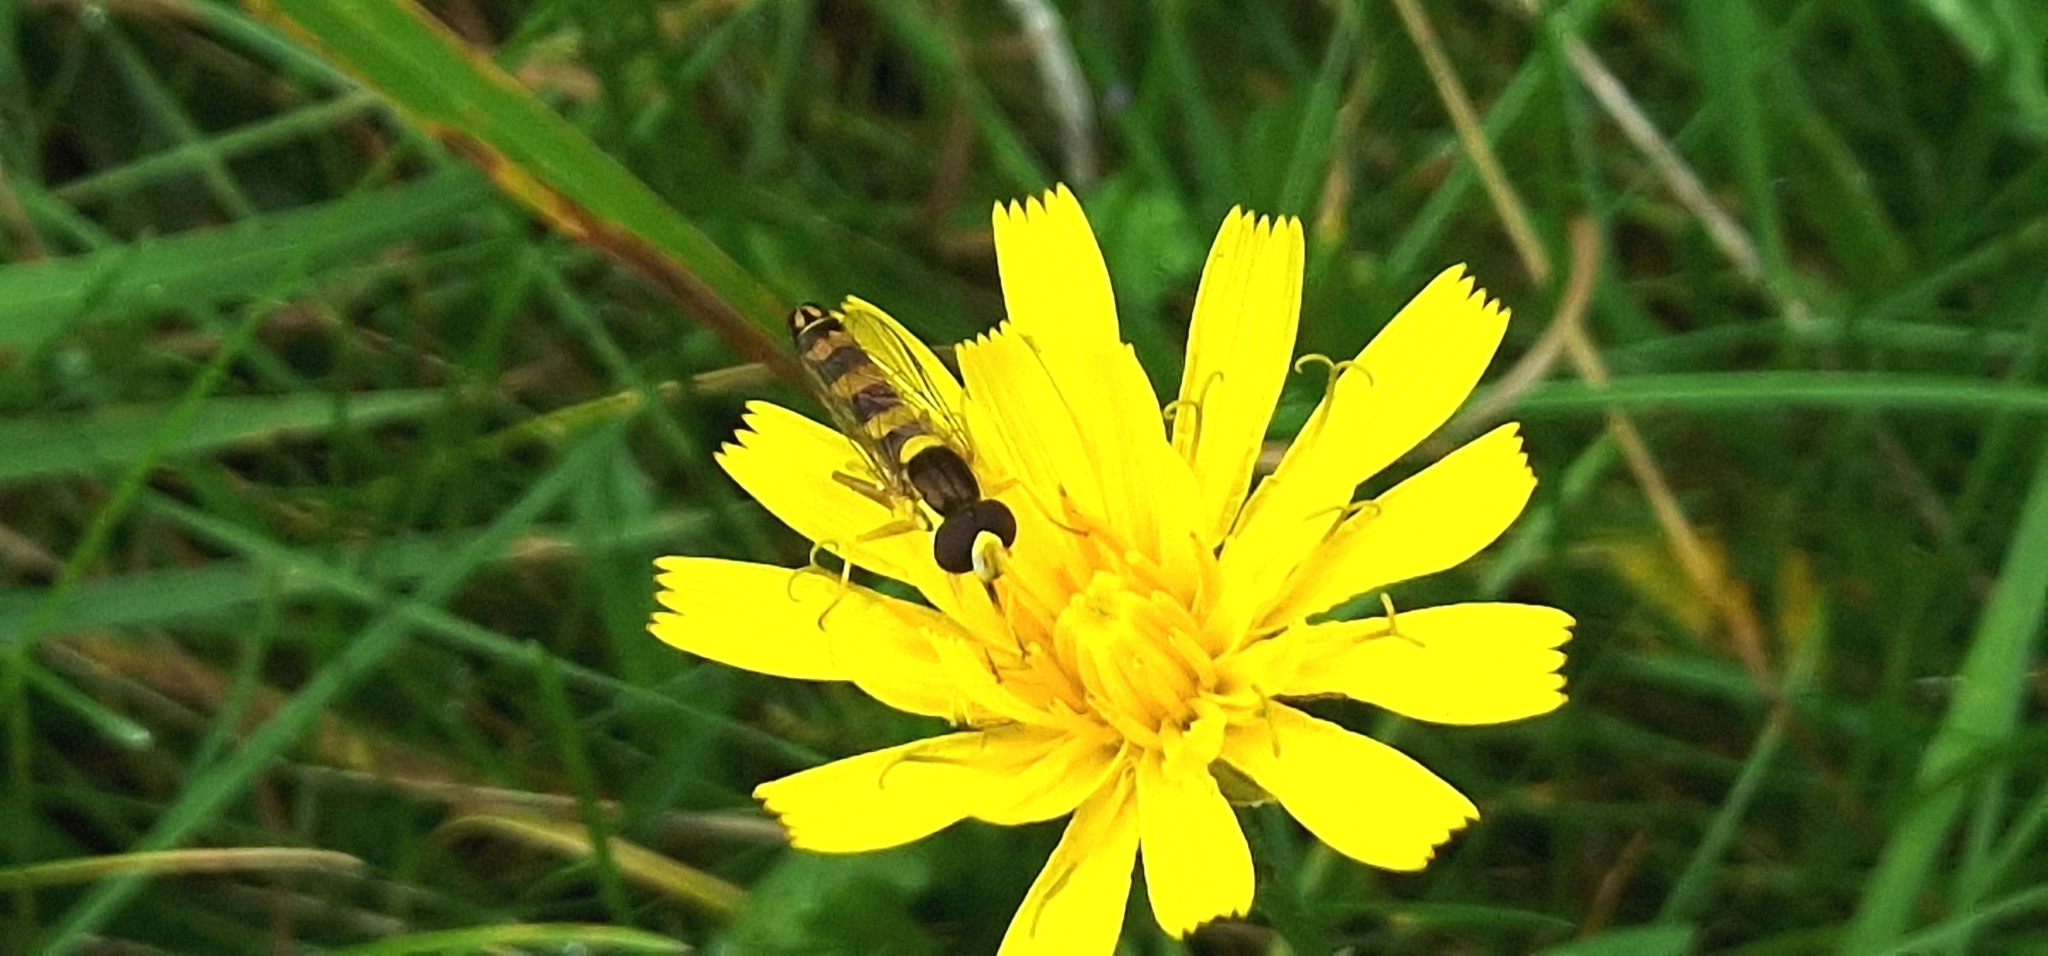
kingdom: Animalia
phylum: Arthropoda
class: Insecta
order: Diptera
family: Syrphidae
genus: Sphaerophoria
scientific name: Sphaerophoria scripta
